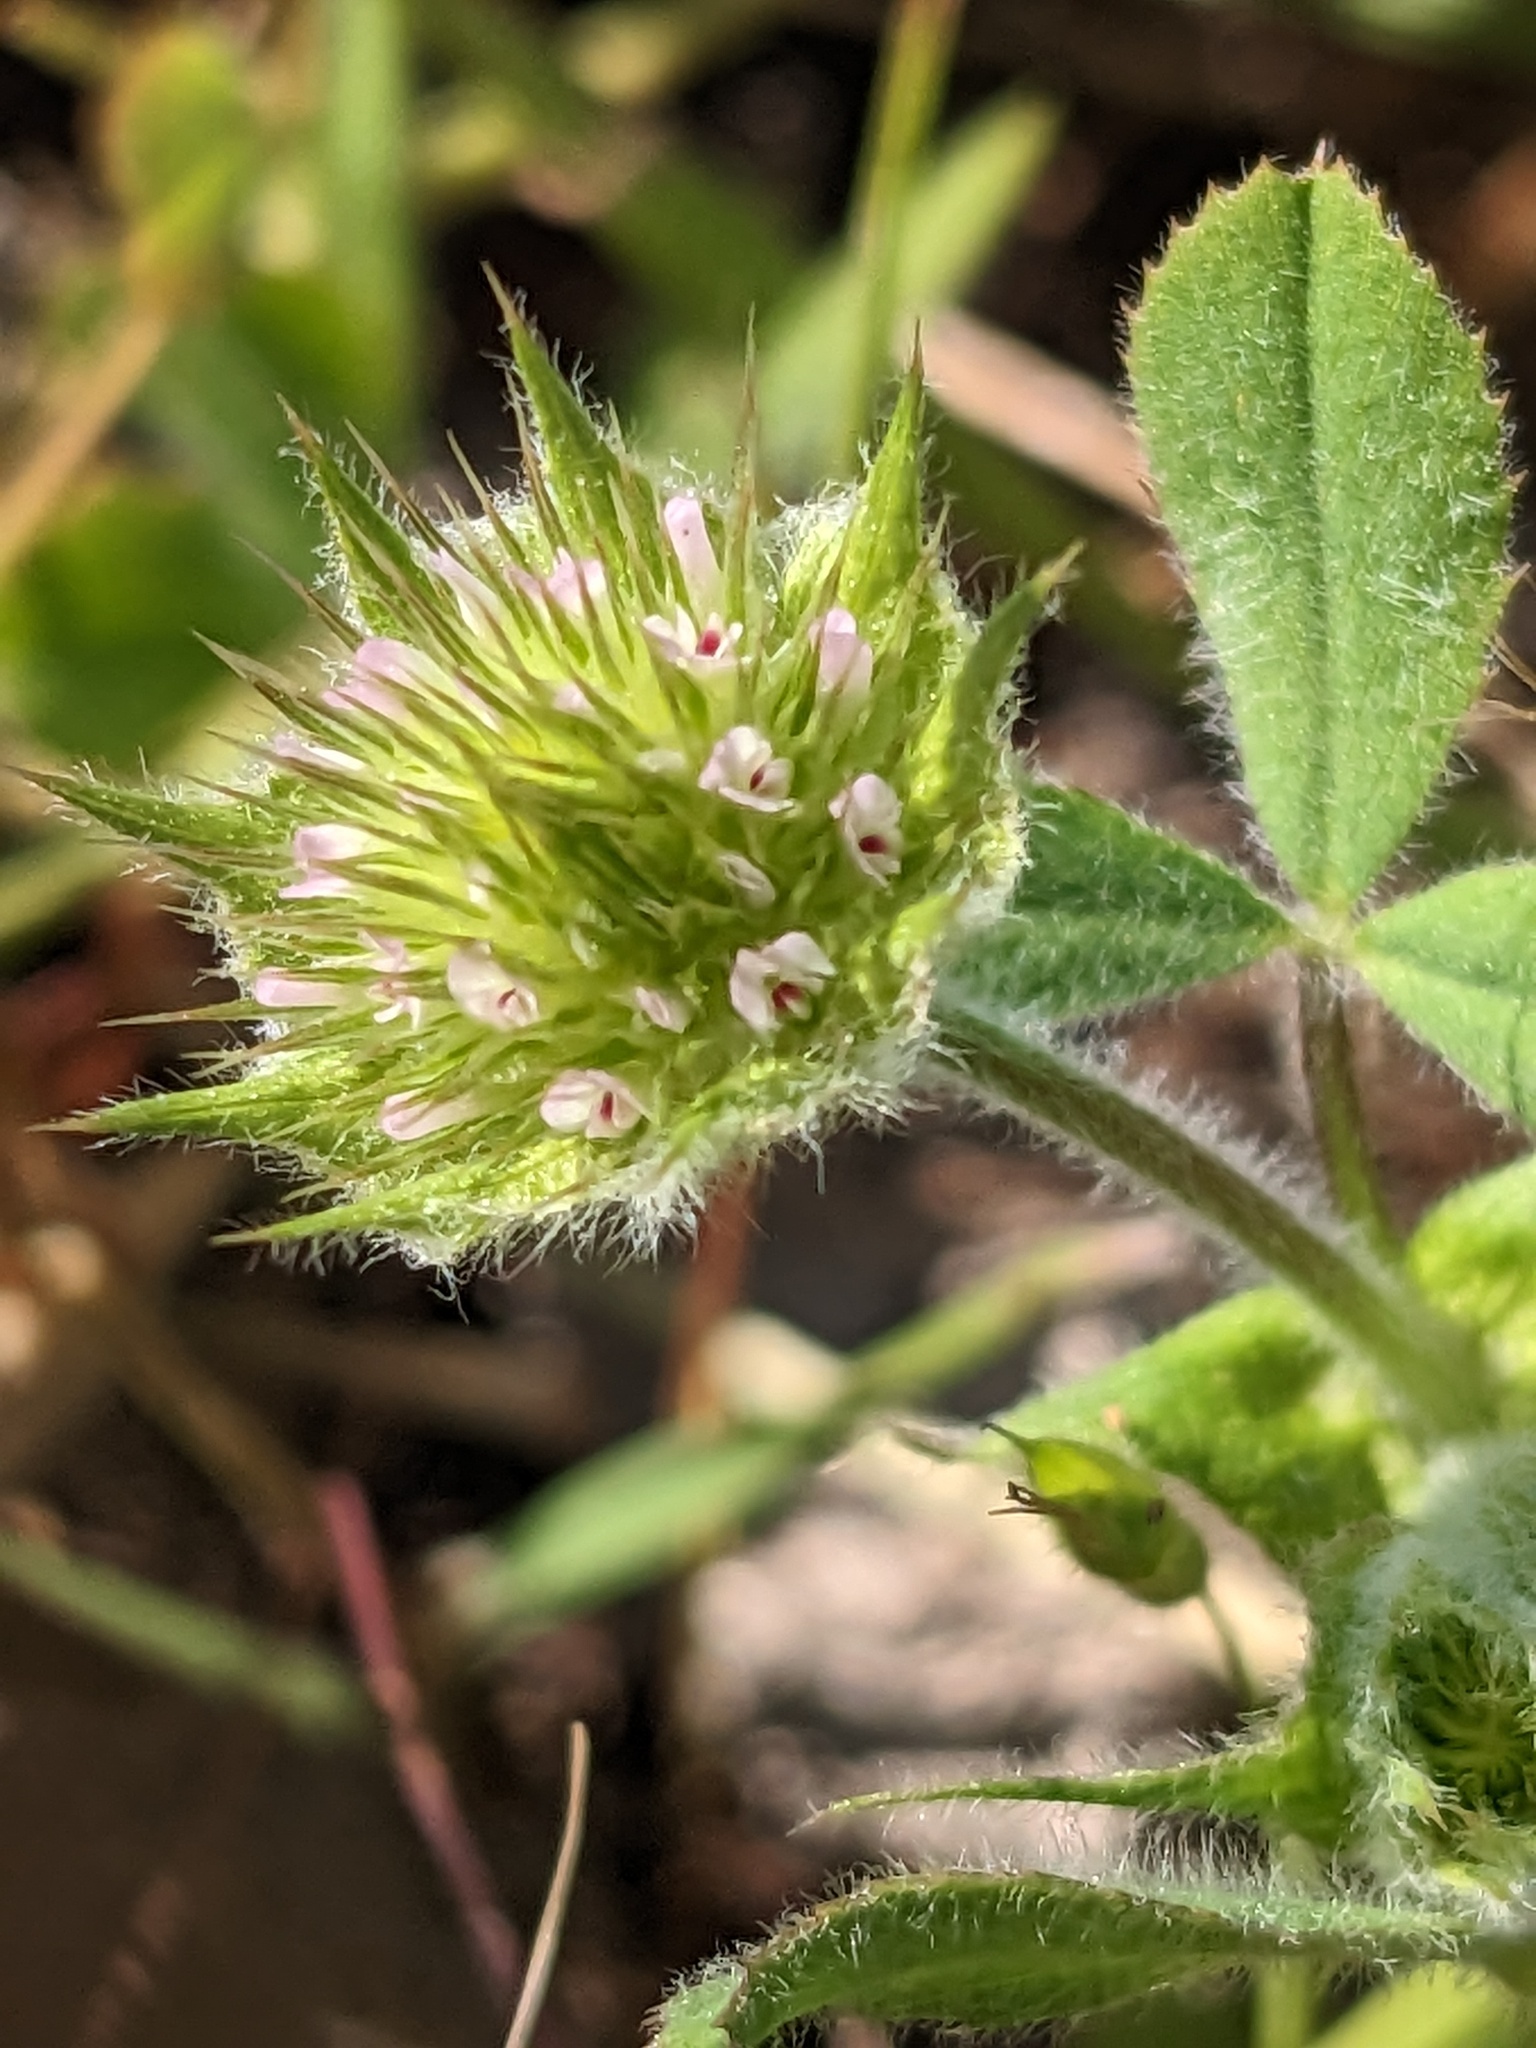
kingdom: Plantae
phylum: Tracheophyta
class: Magnoliopsida
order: Fabales
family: Fabaceae
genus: Trifolium
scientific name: Trifolium microcephalum
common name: Maiden clover
